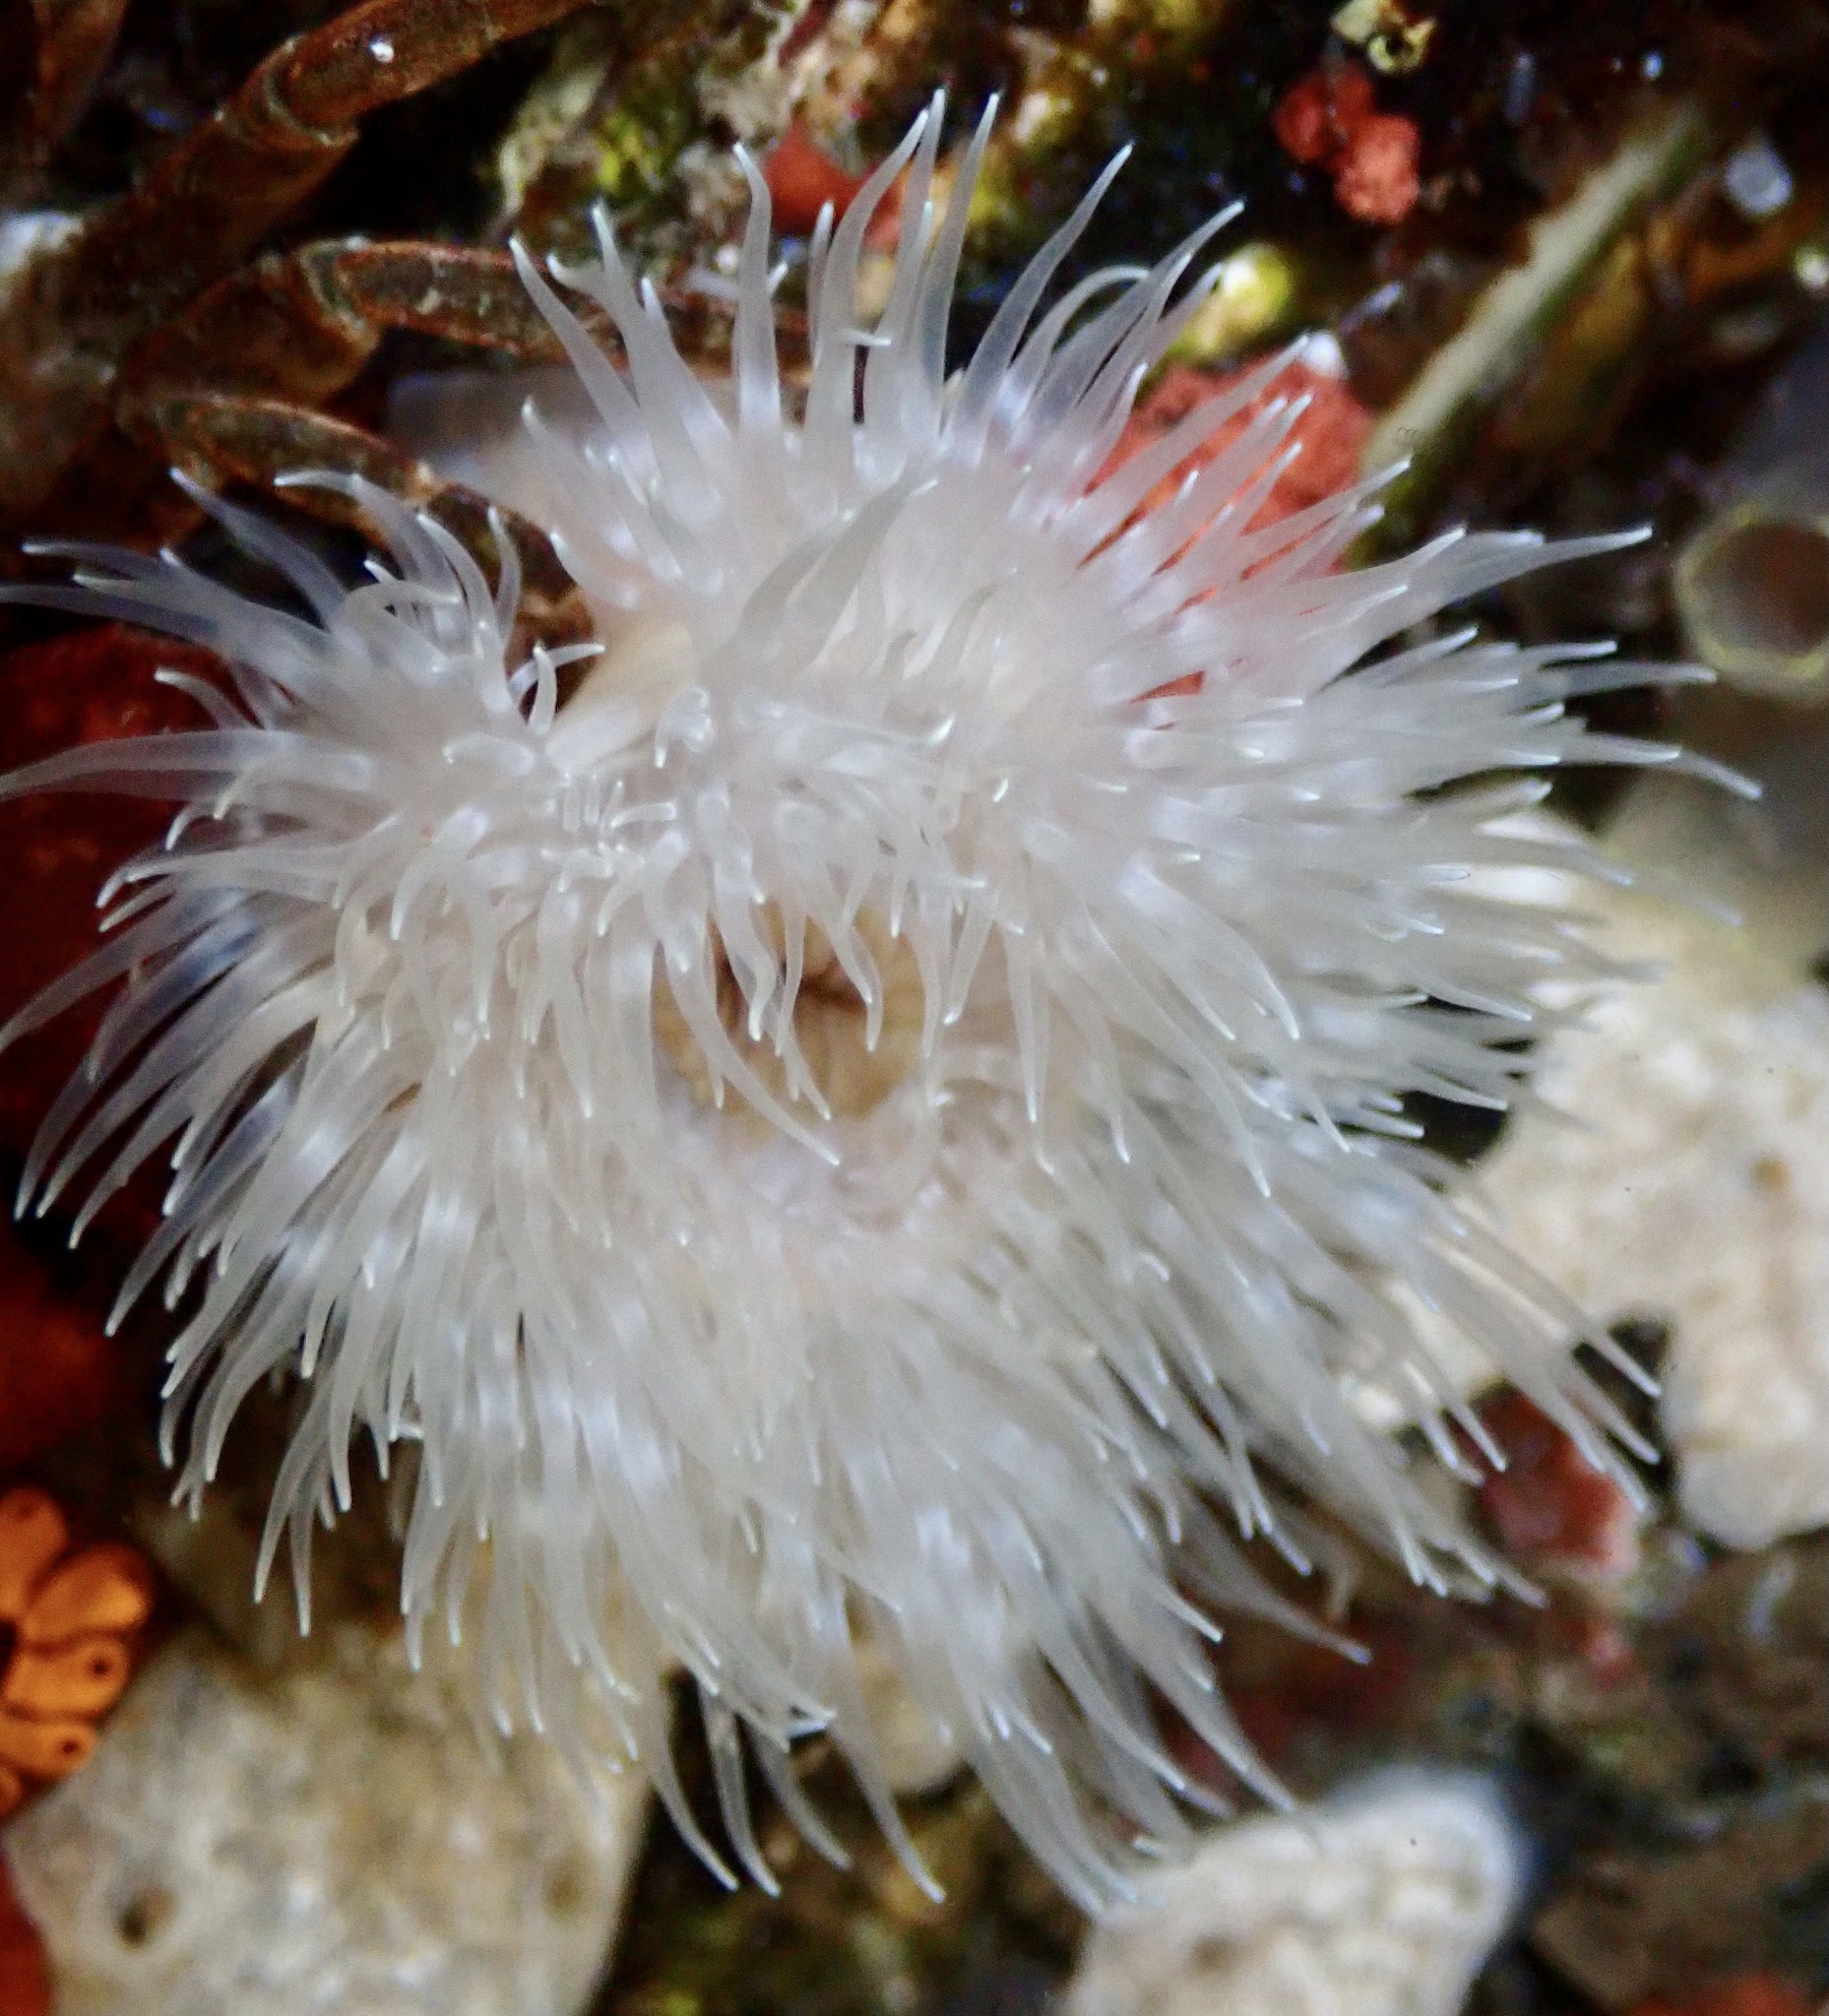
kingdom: Animalia
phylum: Cnidaria
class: Anthozoa
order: Actiniaria
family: Metridiidae
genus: Metridium
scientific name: Metridium senile
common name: Clonal plumose anemone
